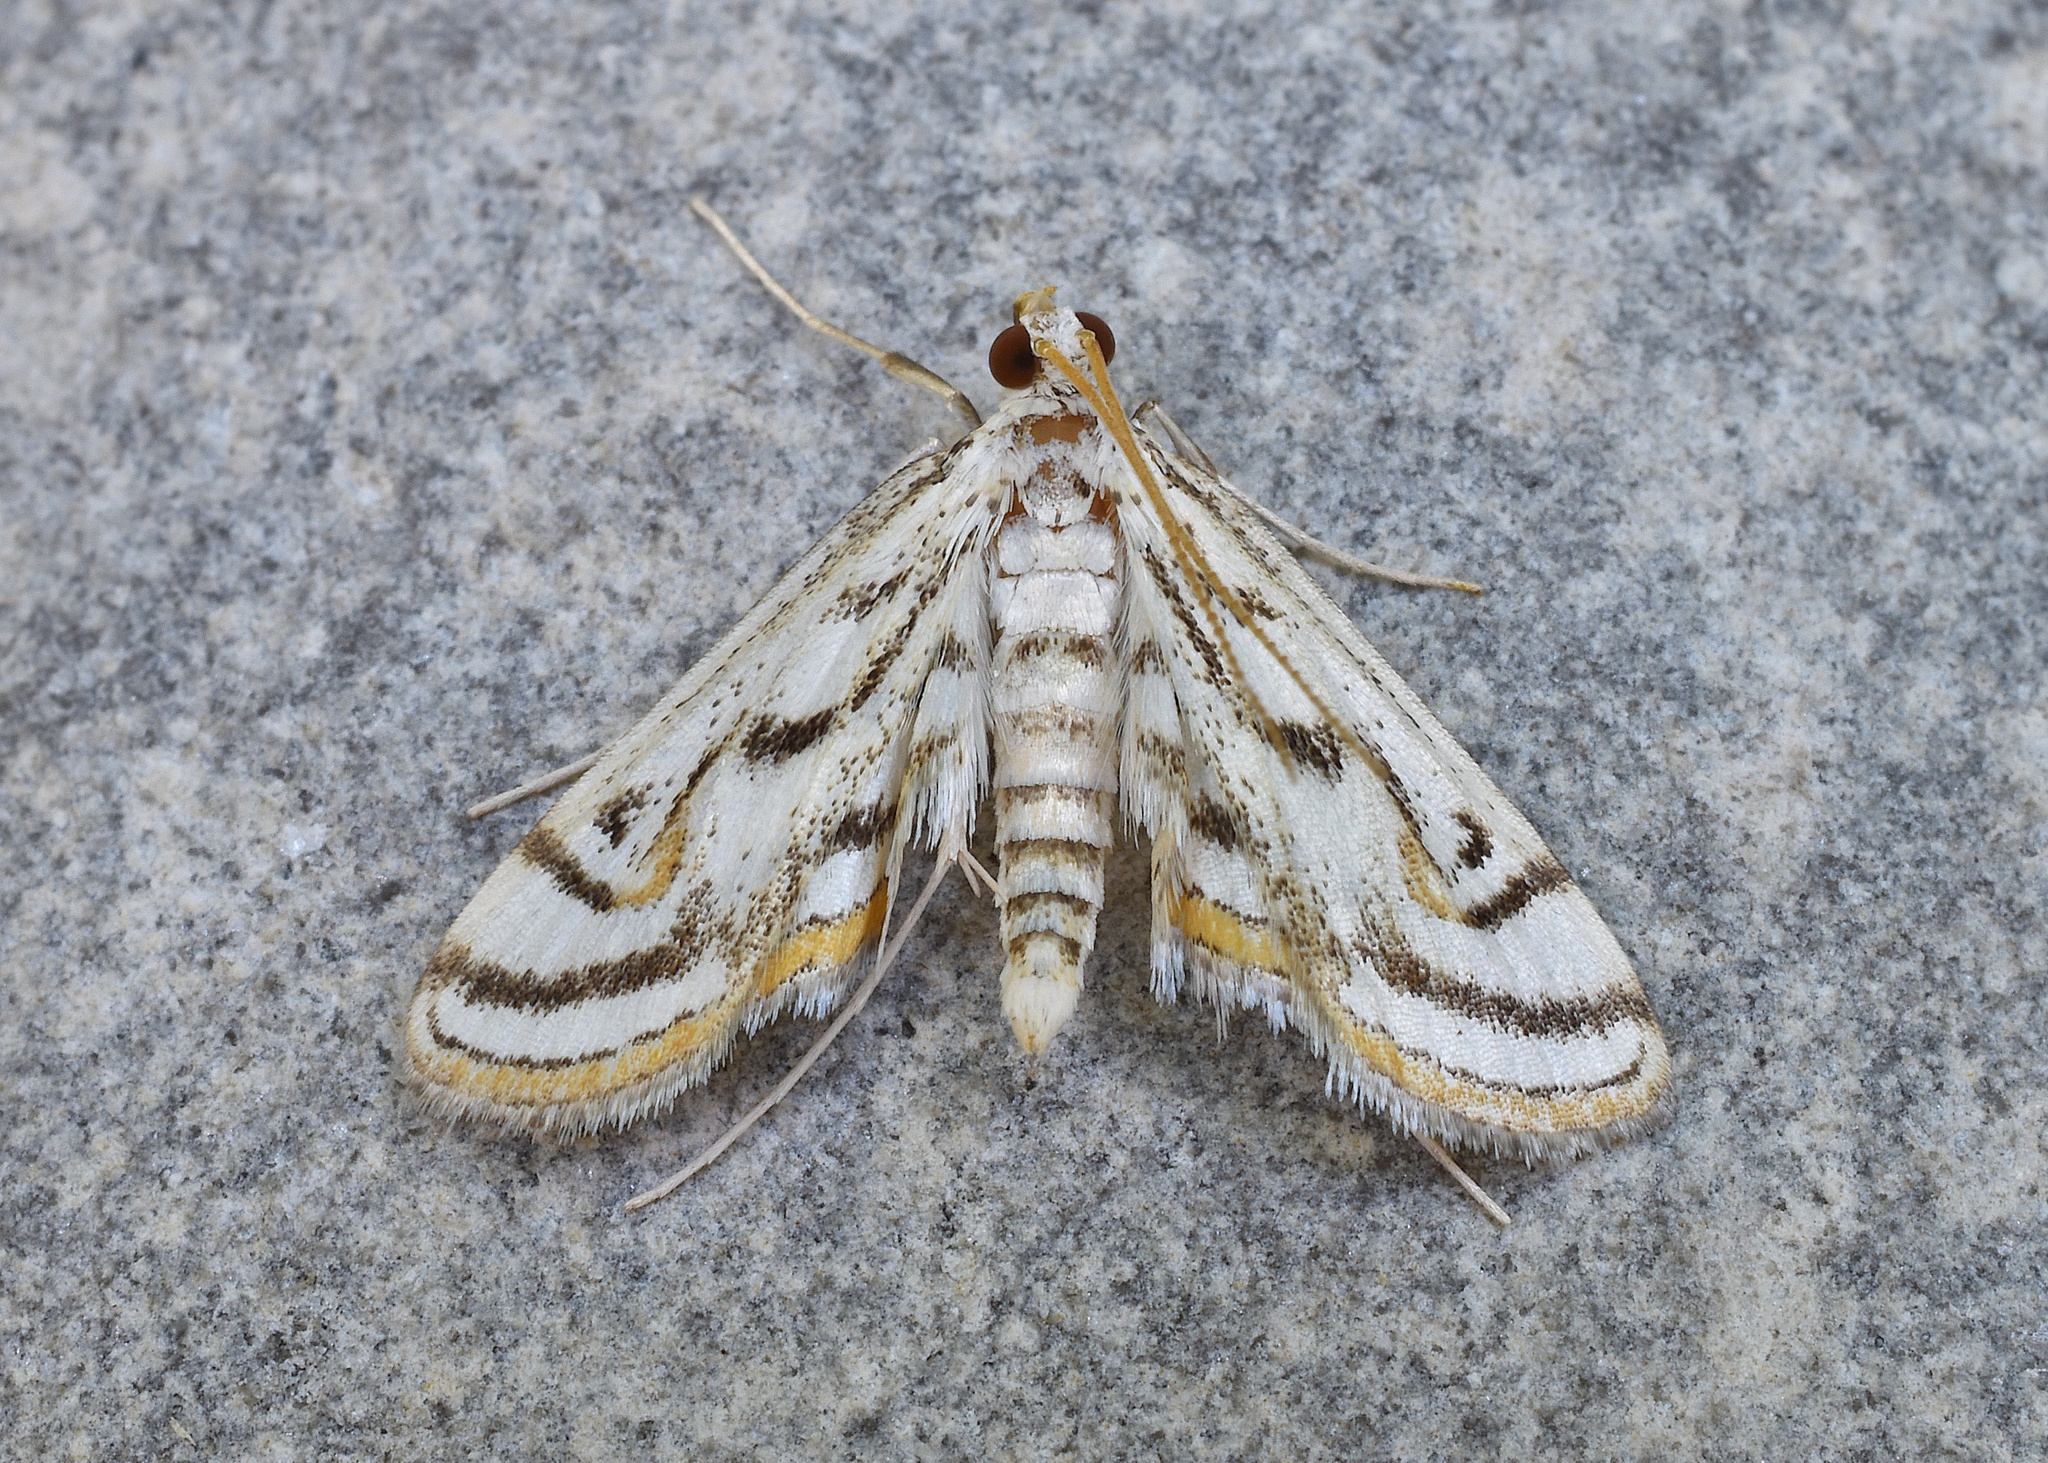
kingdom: Animalia
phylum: Arthropoda
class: Insecta
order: Lepidoptera
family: Crambidae
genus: Parapoynx
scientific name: Parapoynx badiusalis
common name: Chestnut-marked pondweed moth
